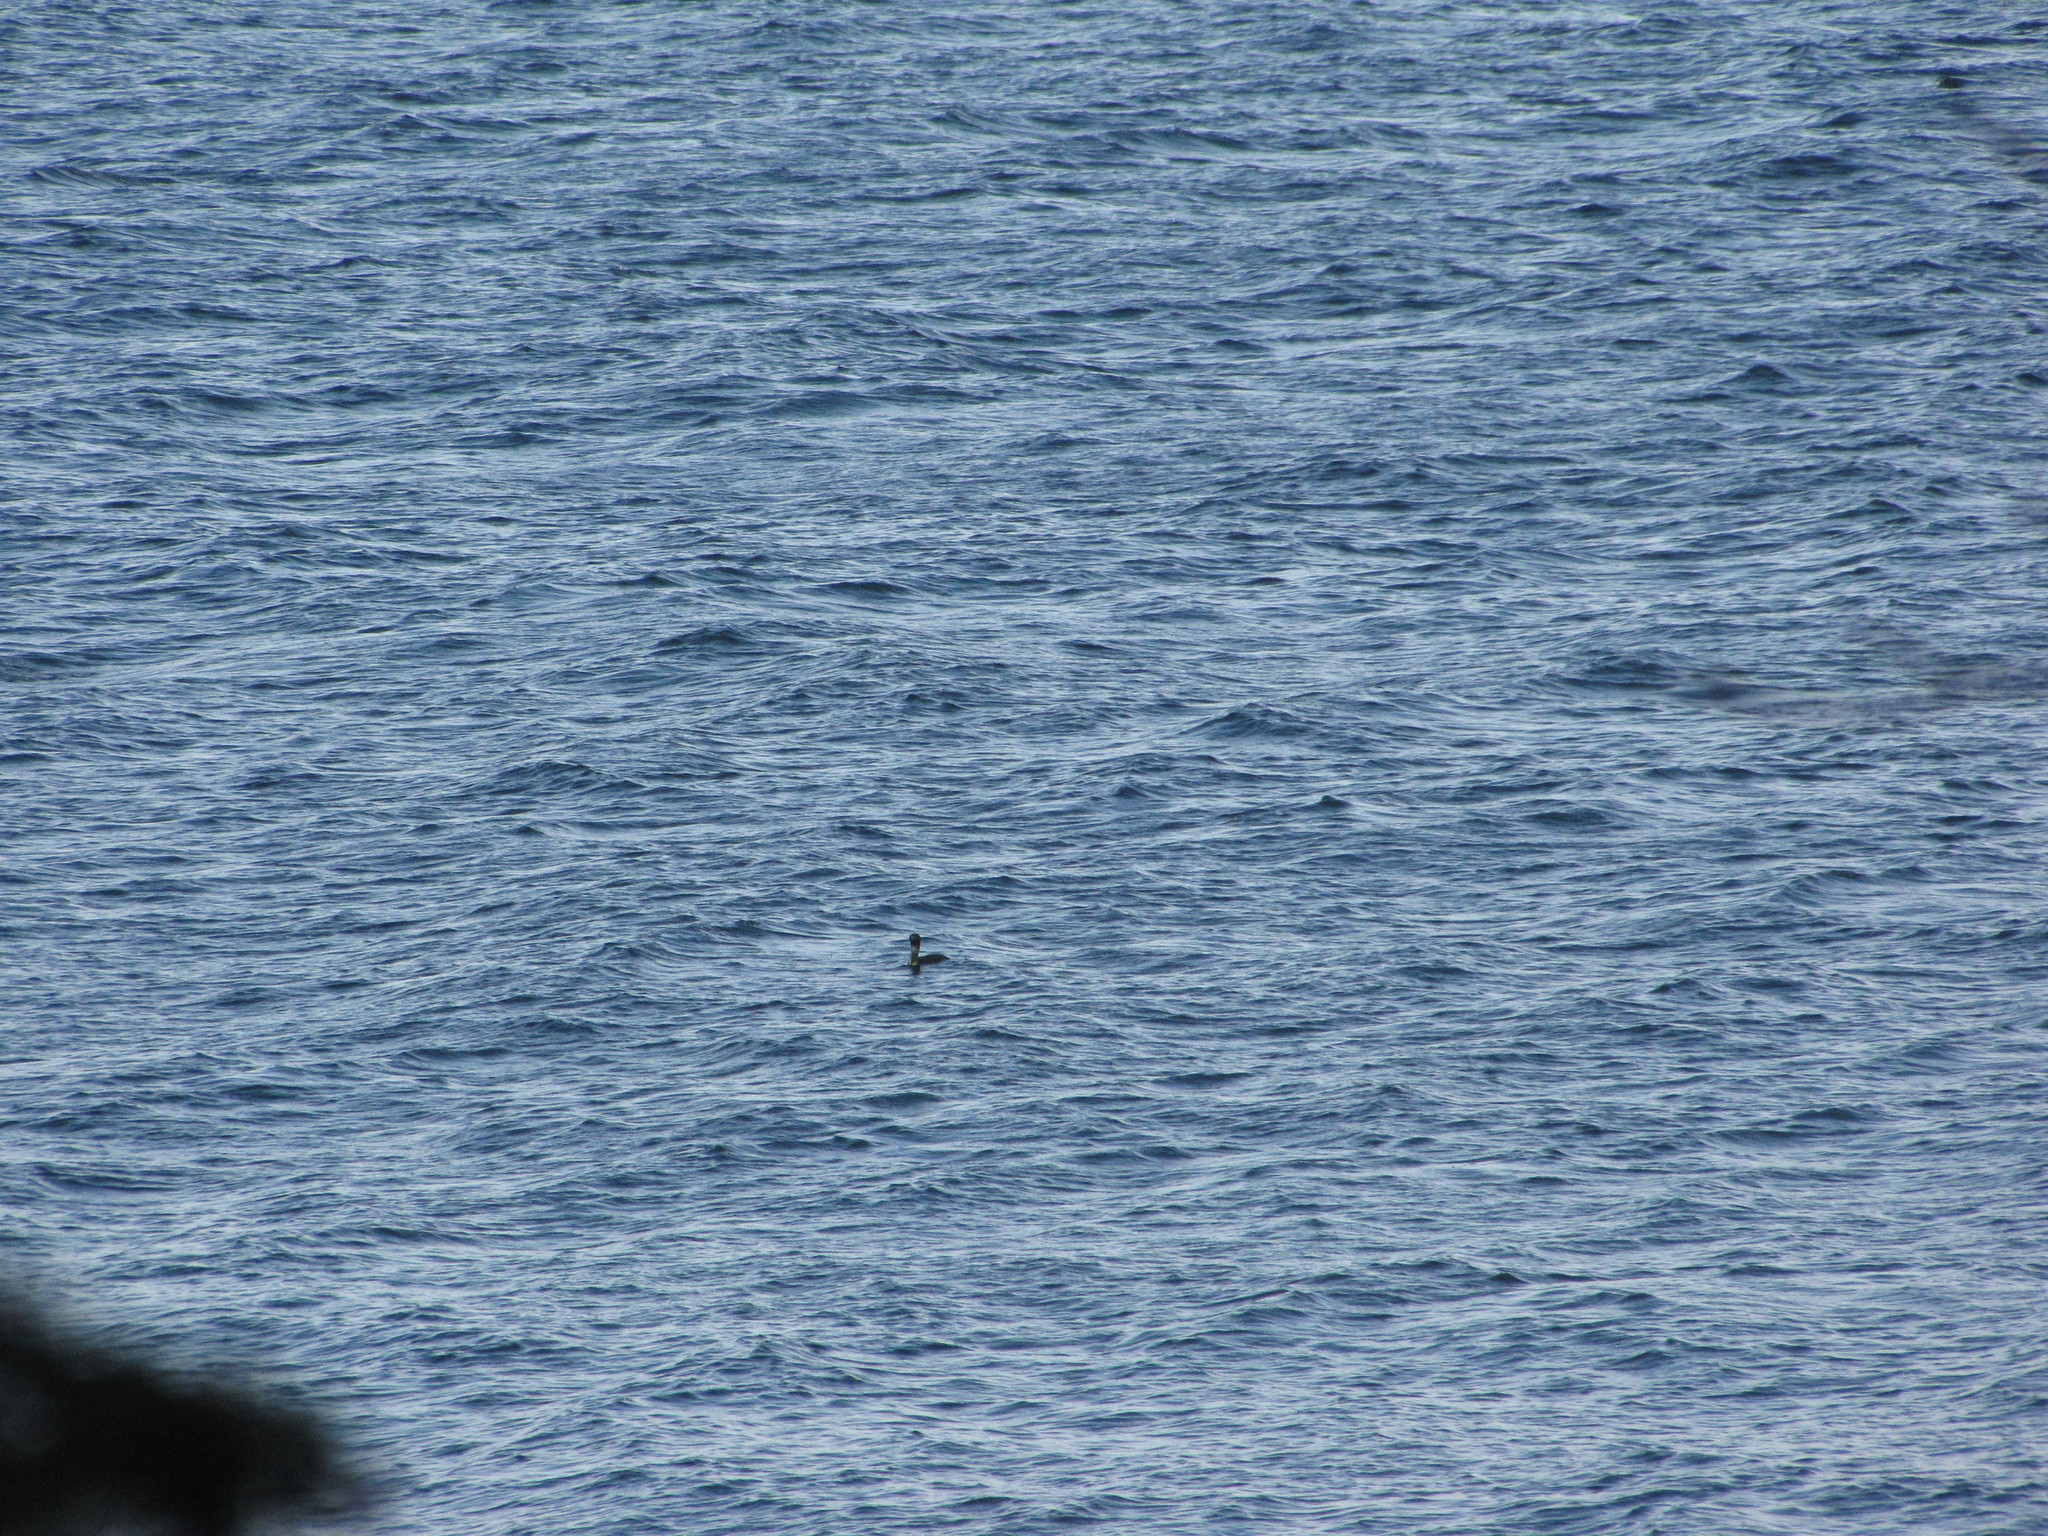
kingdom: Animalia
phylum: Chordata
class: Aves
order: Suliformes
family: Phalacrocoracidae
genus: Phalacrocorax
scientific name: Phalacrocorax pelagicus
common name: Pelagic cormorant
